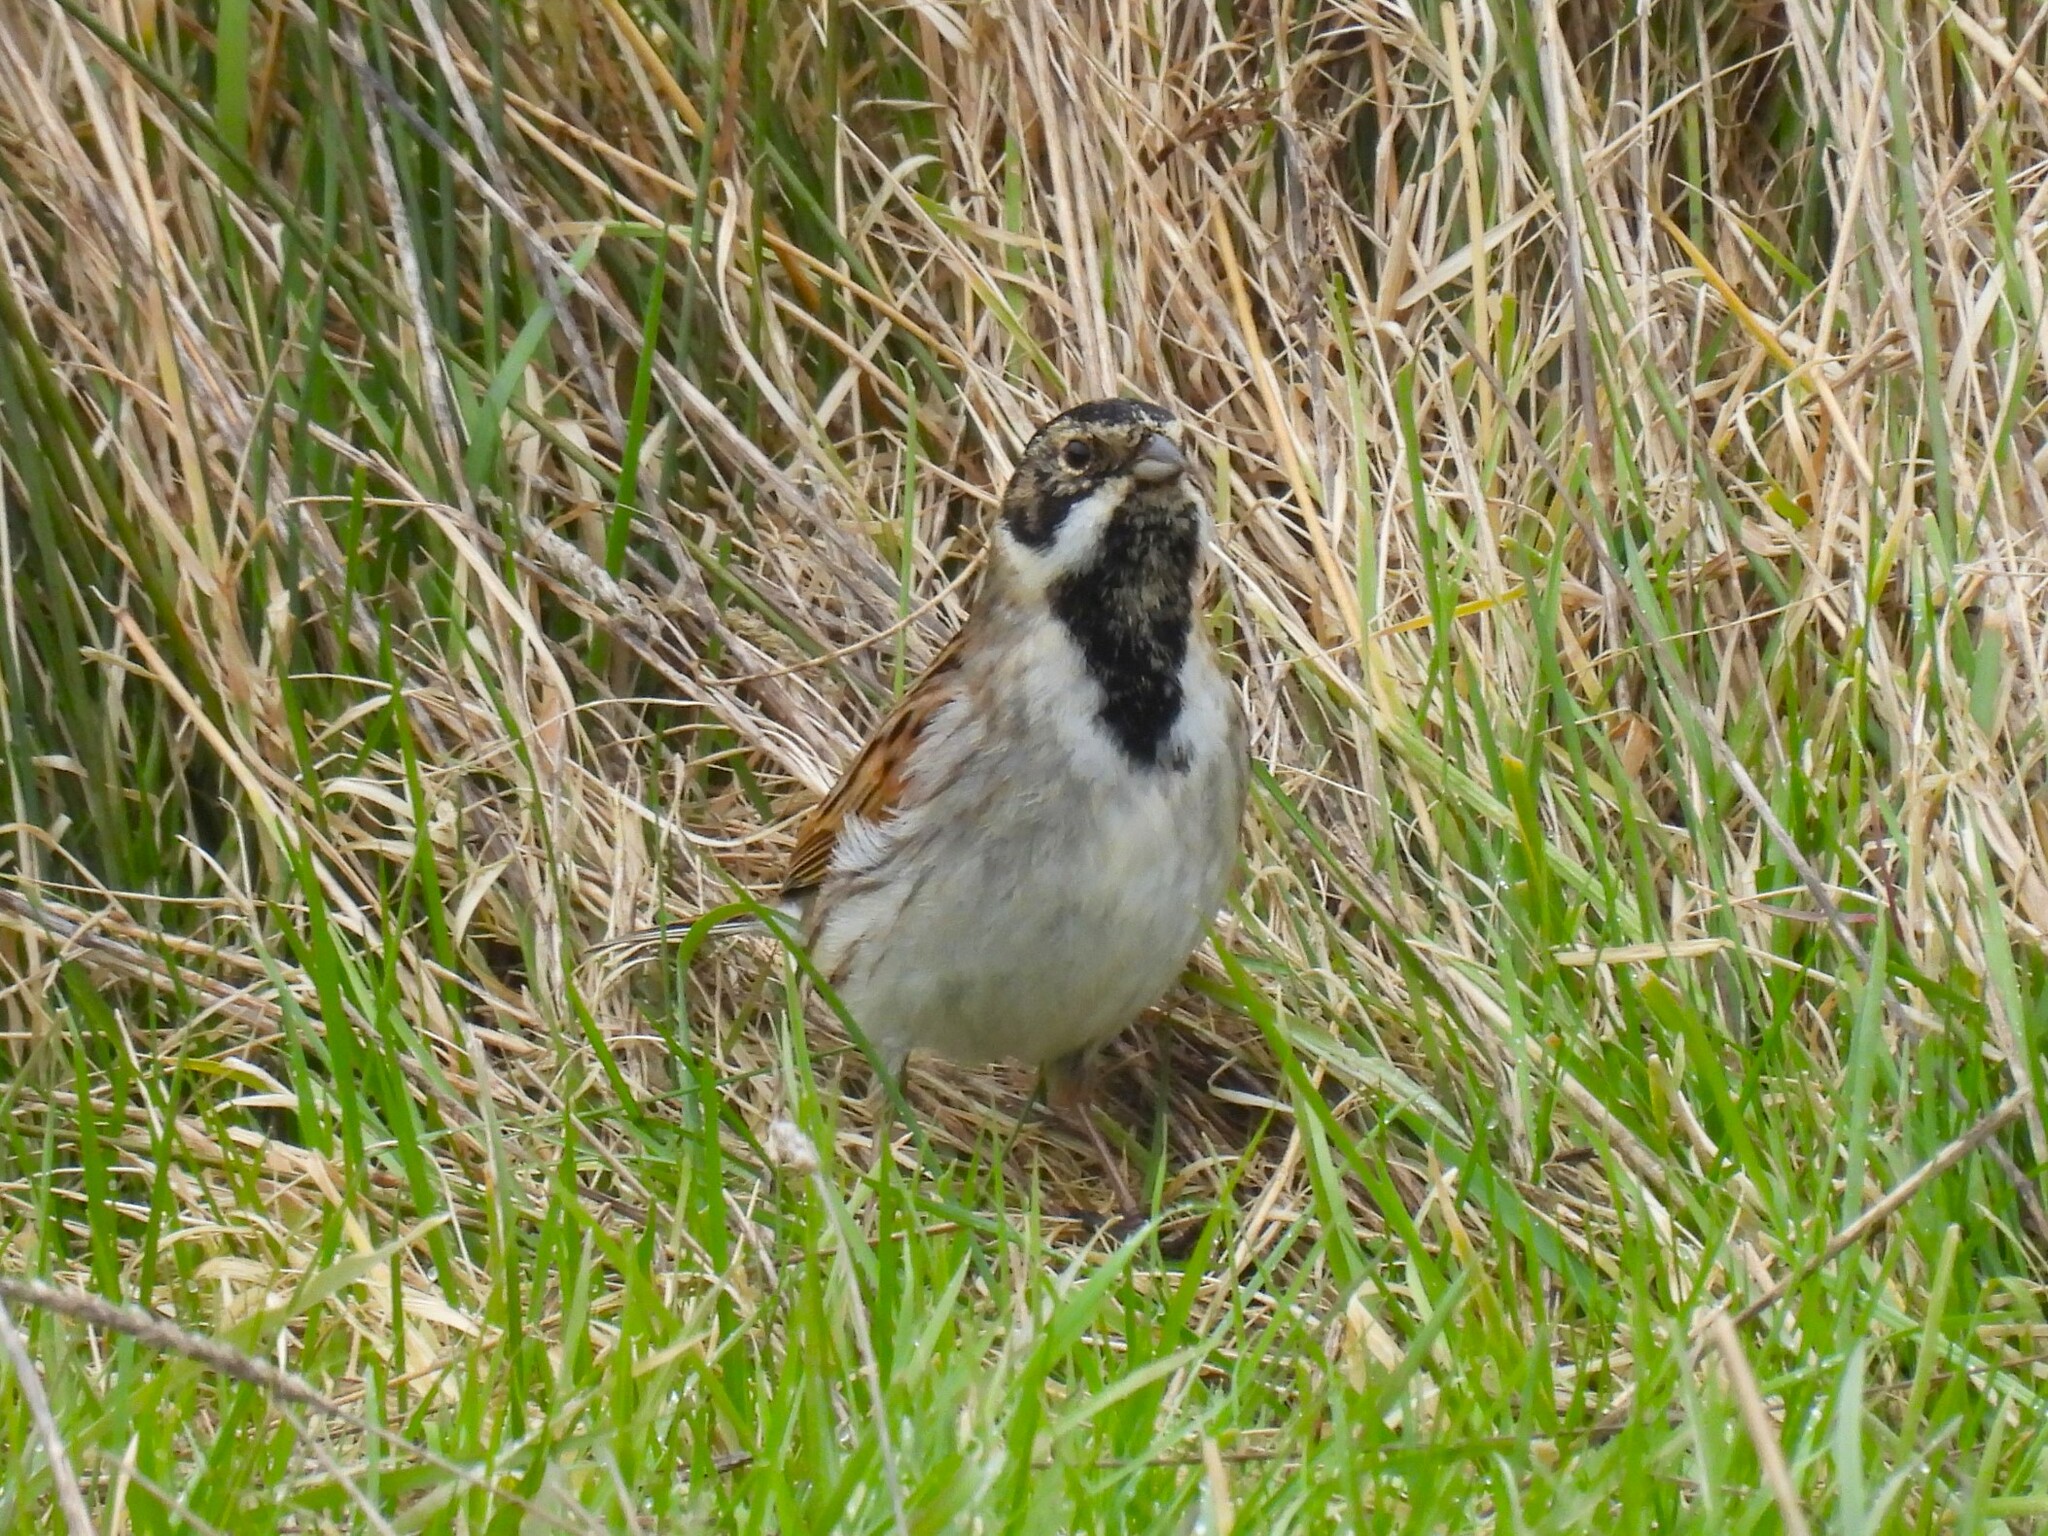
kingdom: Animalia
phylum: Chordata
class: Aves
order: Passeriformes
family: Emberizidae
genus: Emberiza
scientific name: Emberiza schoeniclus
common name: Reed bunting
